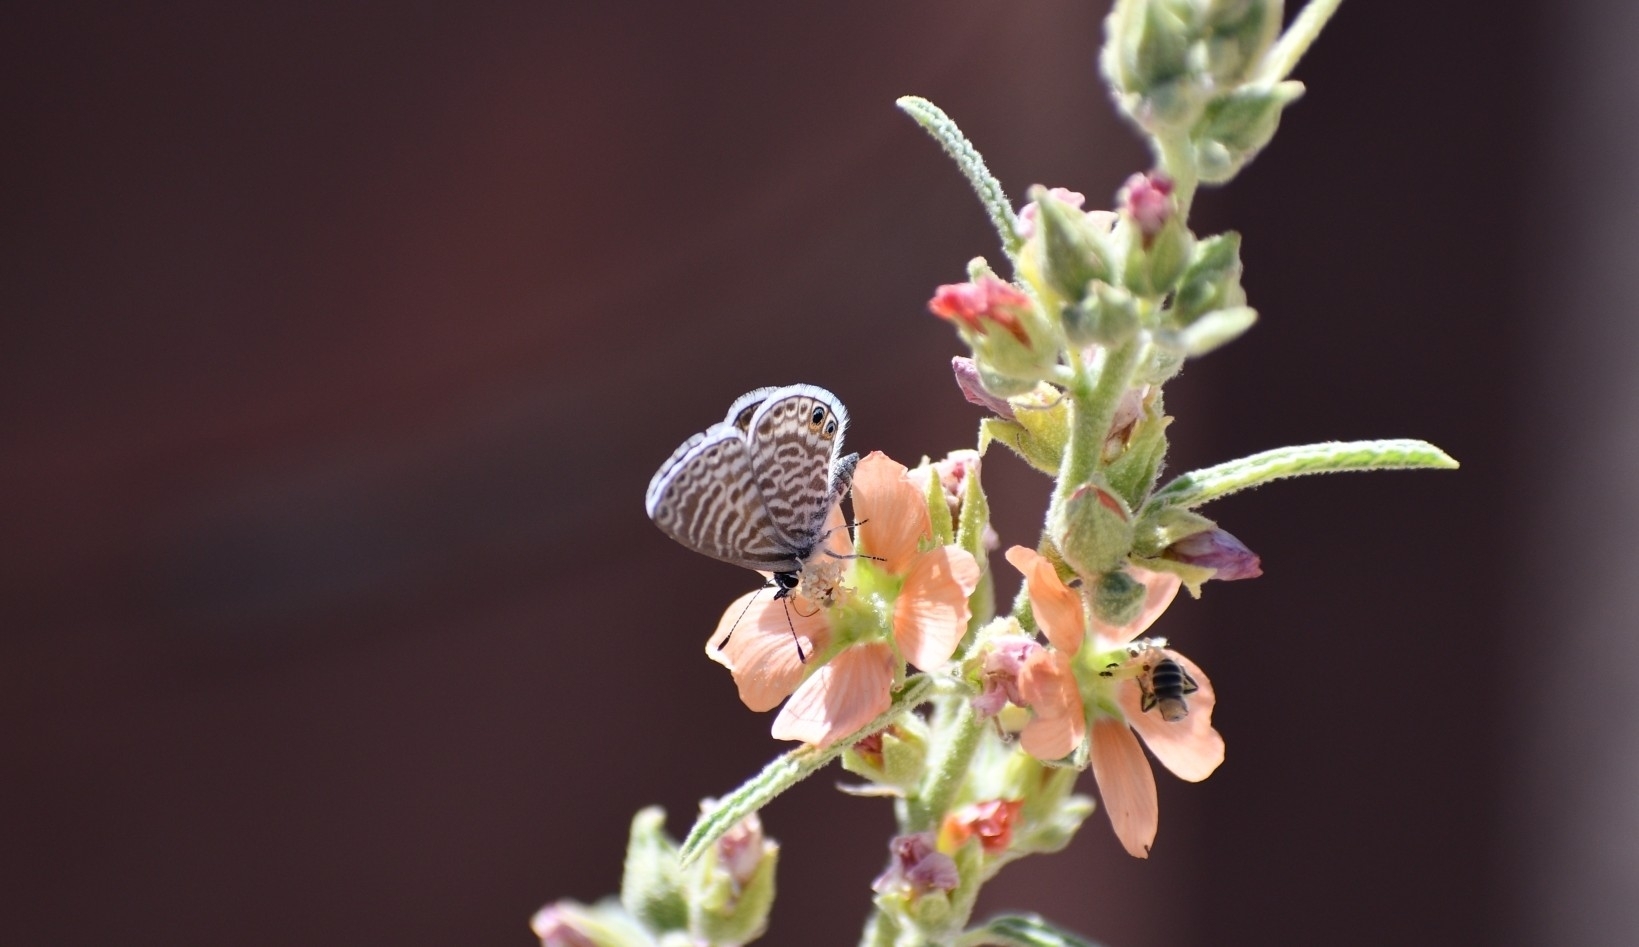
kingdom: Animalia
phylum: Arthropoda
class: Insecta
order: Lepidoptera
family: Lycaenidae
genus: Leptotes
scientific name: Leptotes marina
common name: Marine blue
